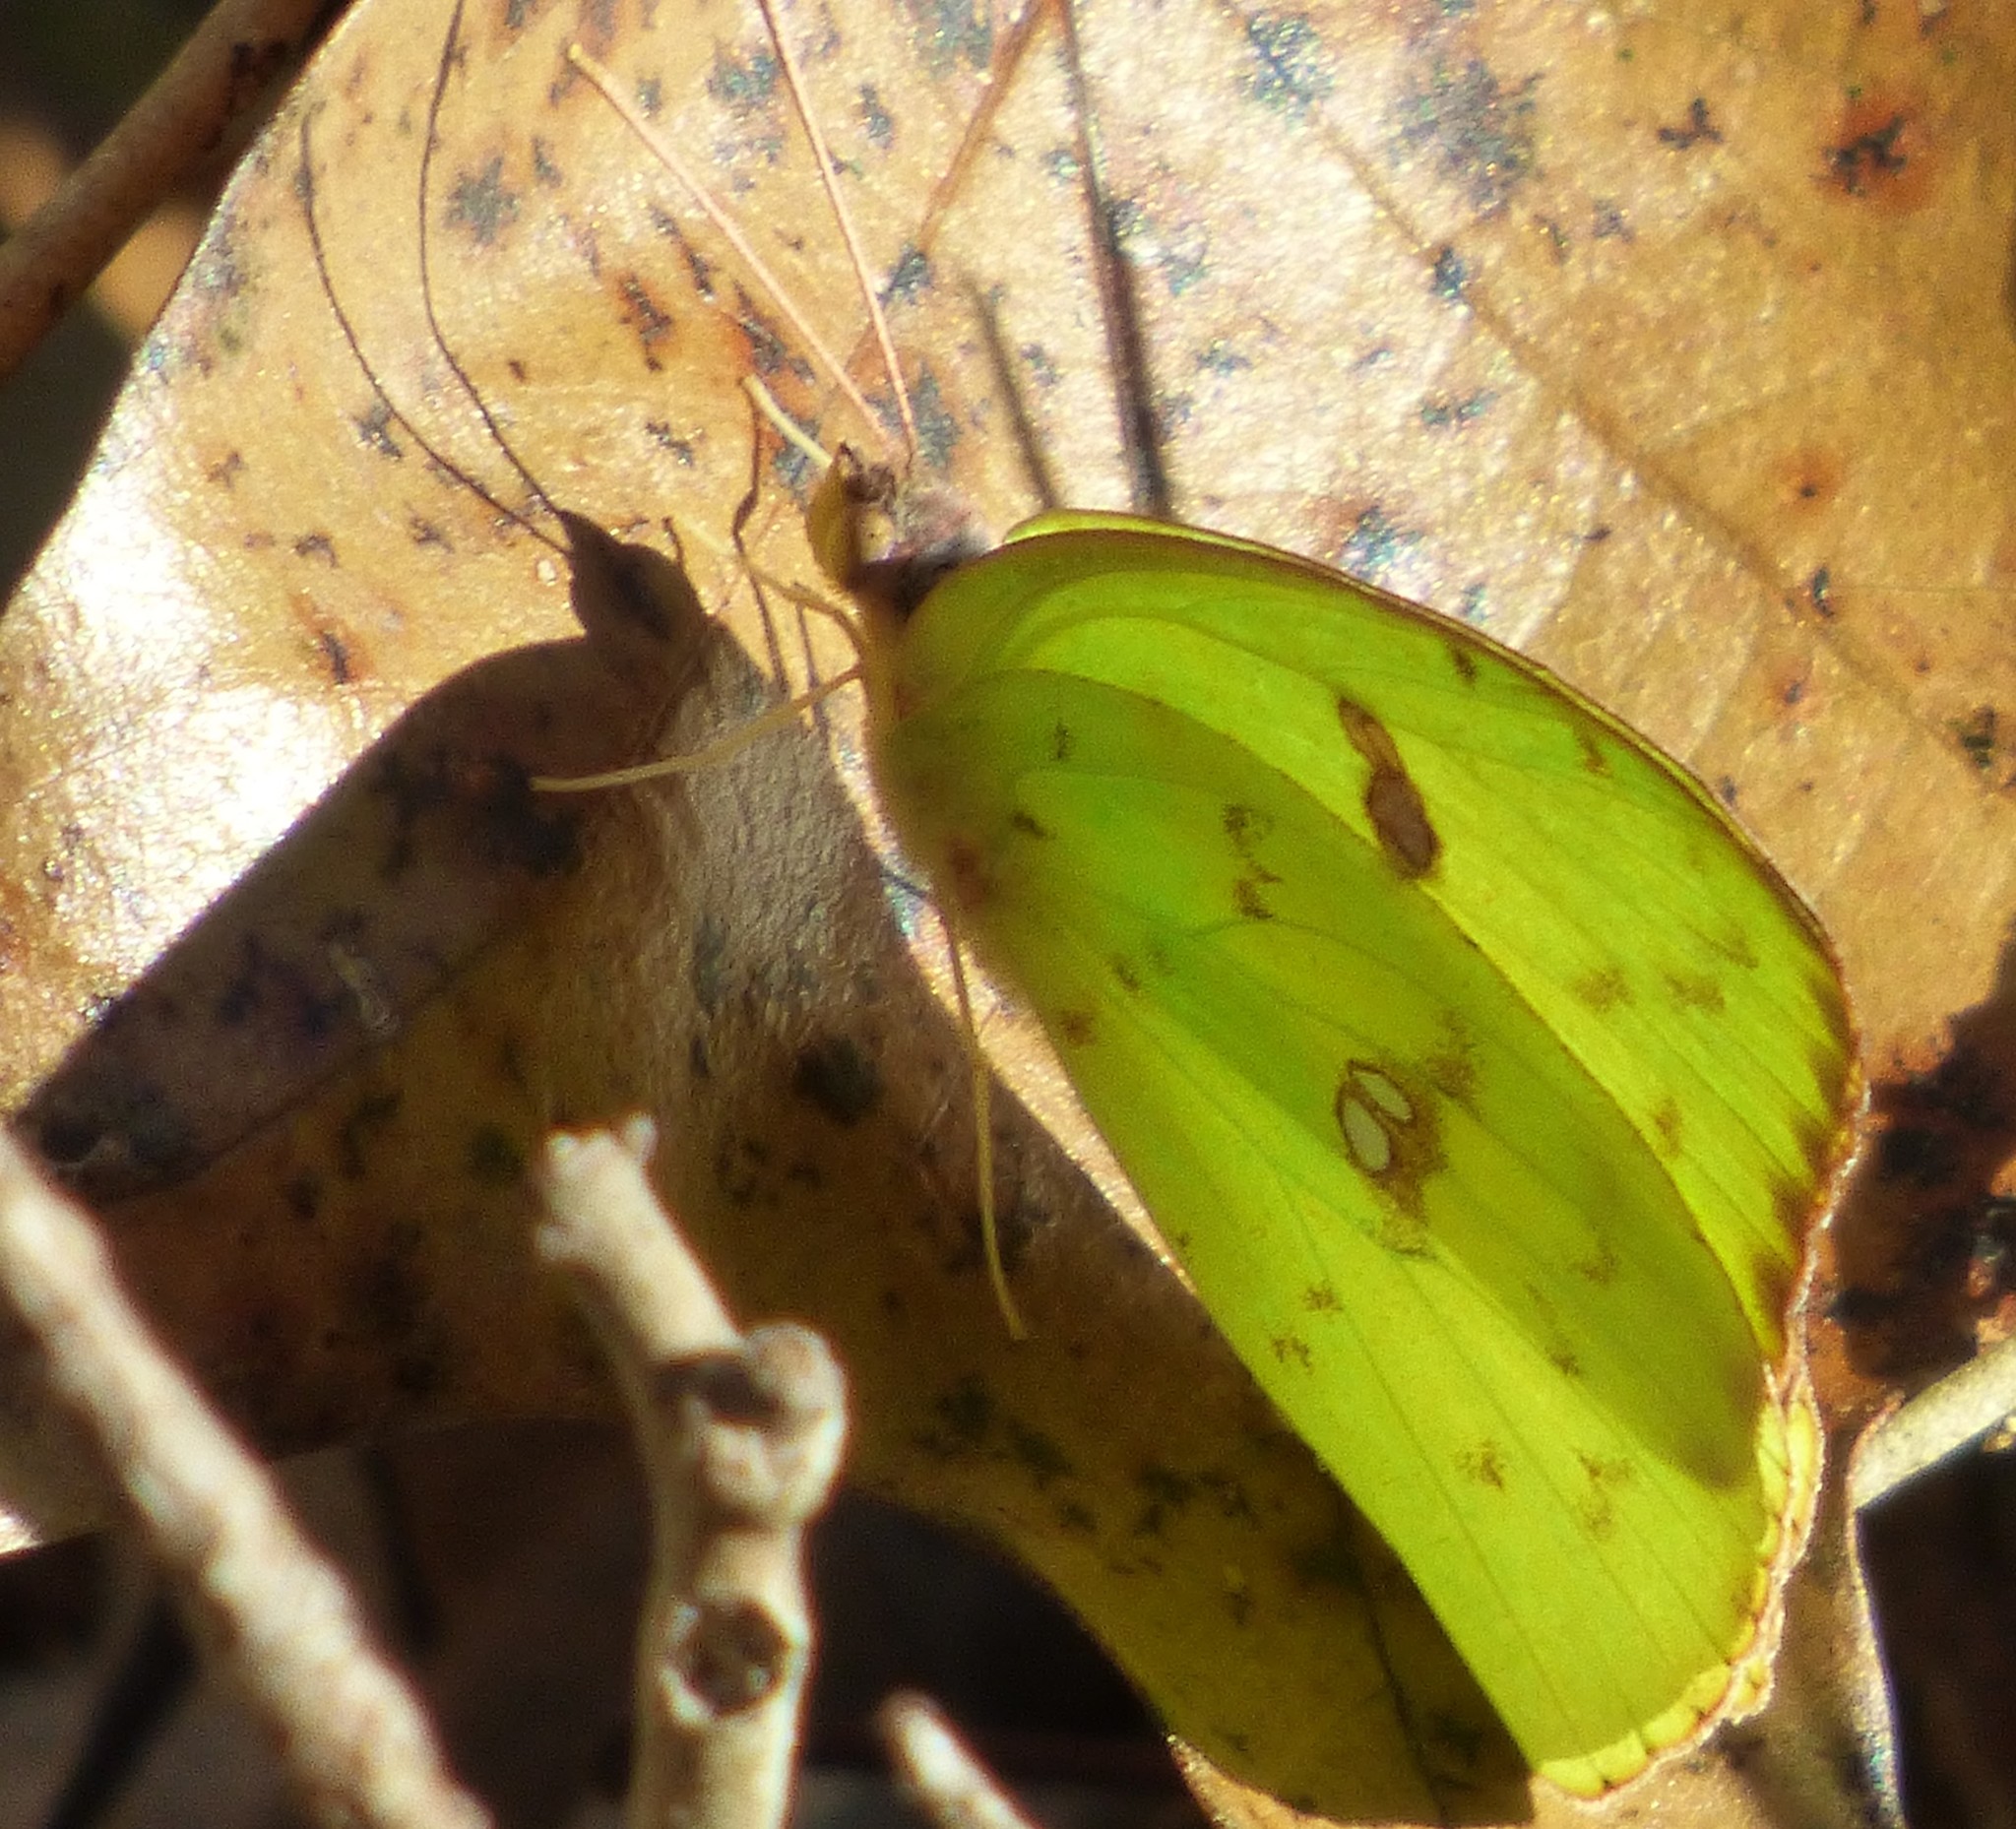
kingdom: Animalia
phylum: Arthropoda
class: Insecta
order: Lepidoptera
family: Pieridae
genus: Phoebis
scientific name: Phoebis sennae
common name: Cloudless sulphur
